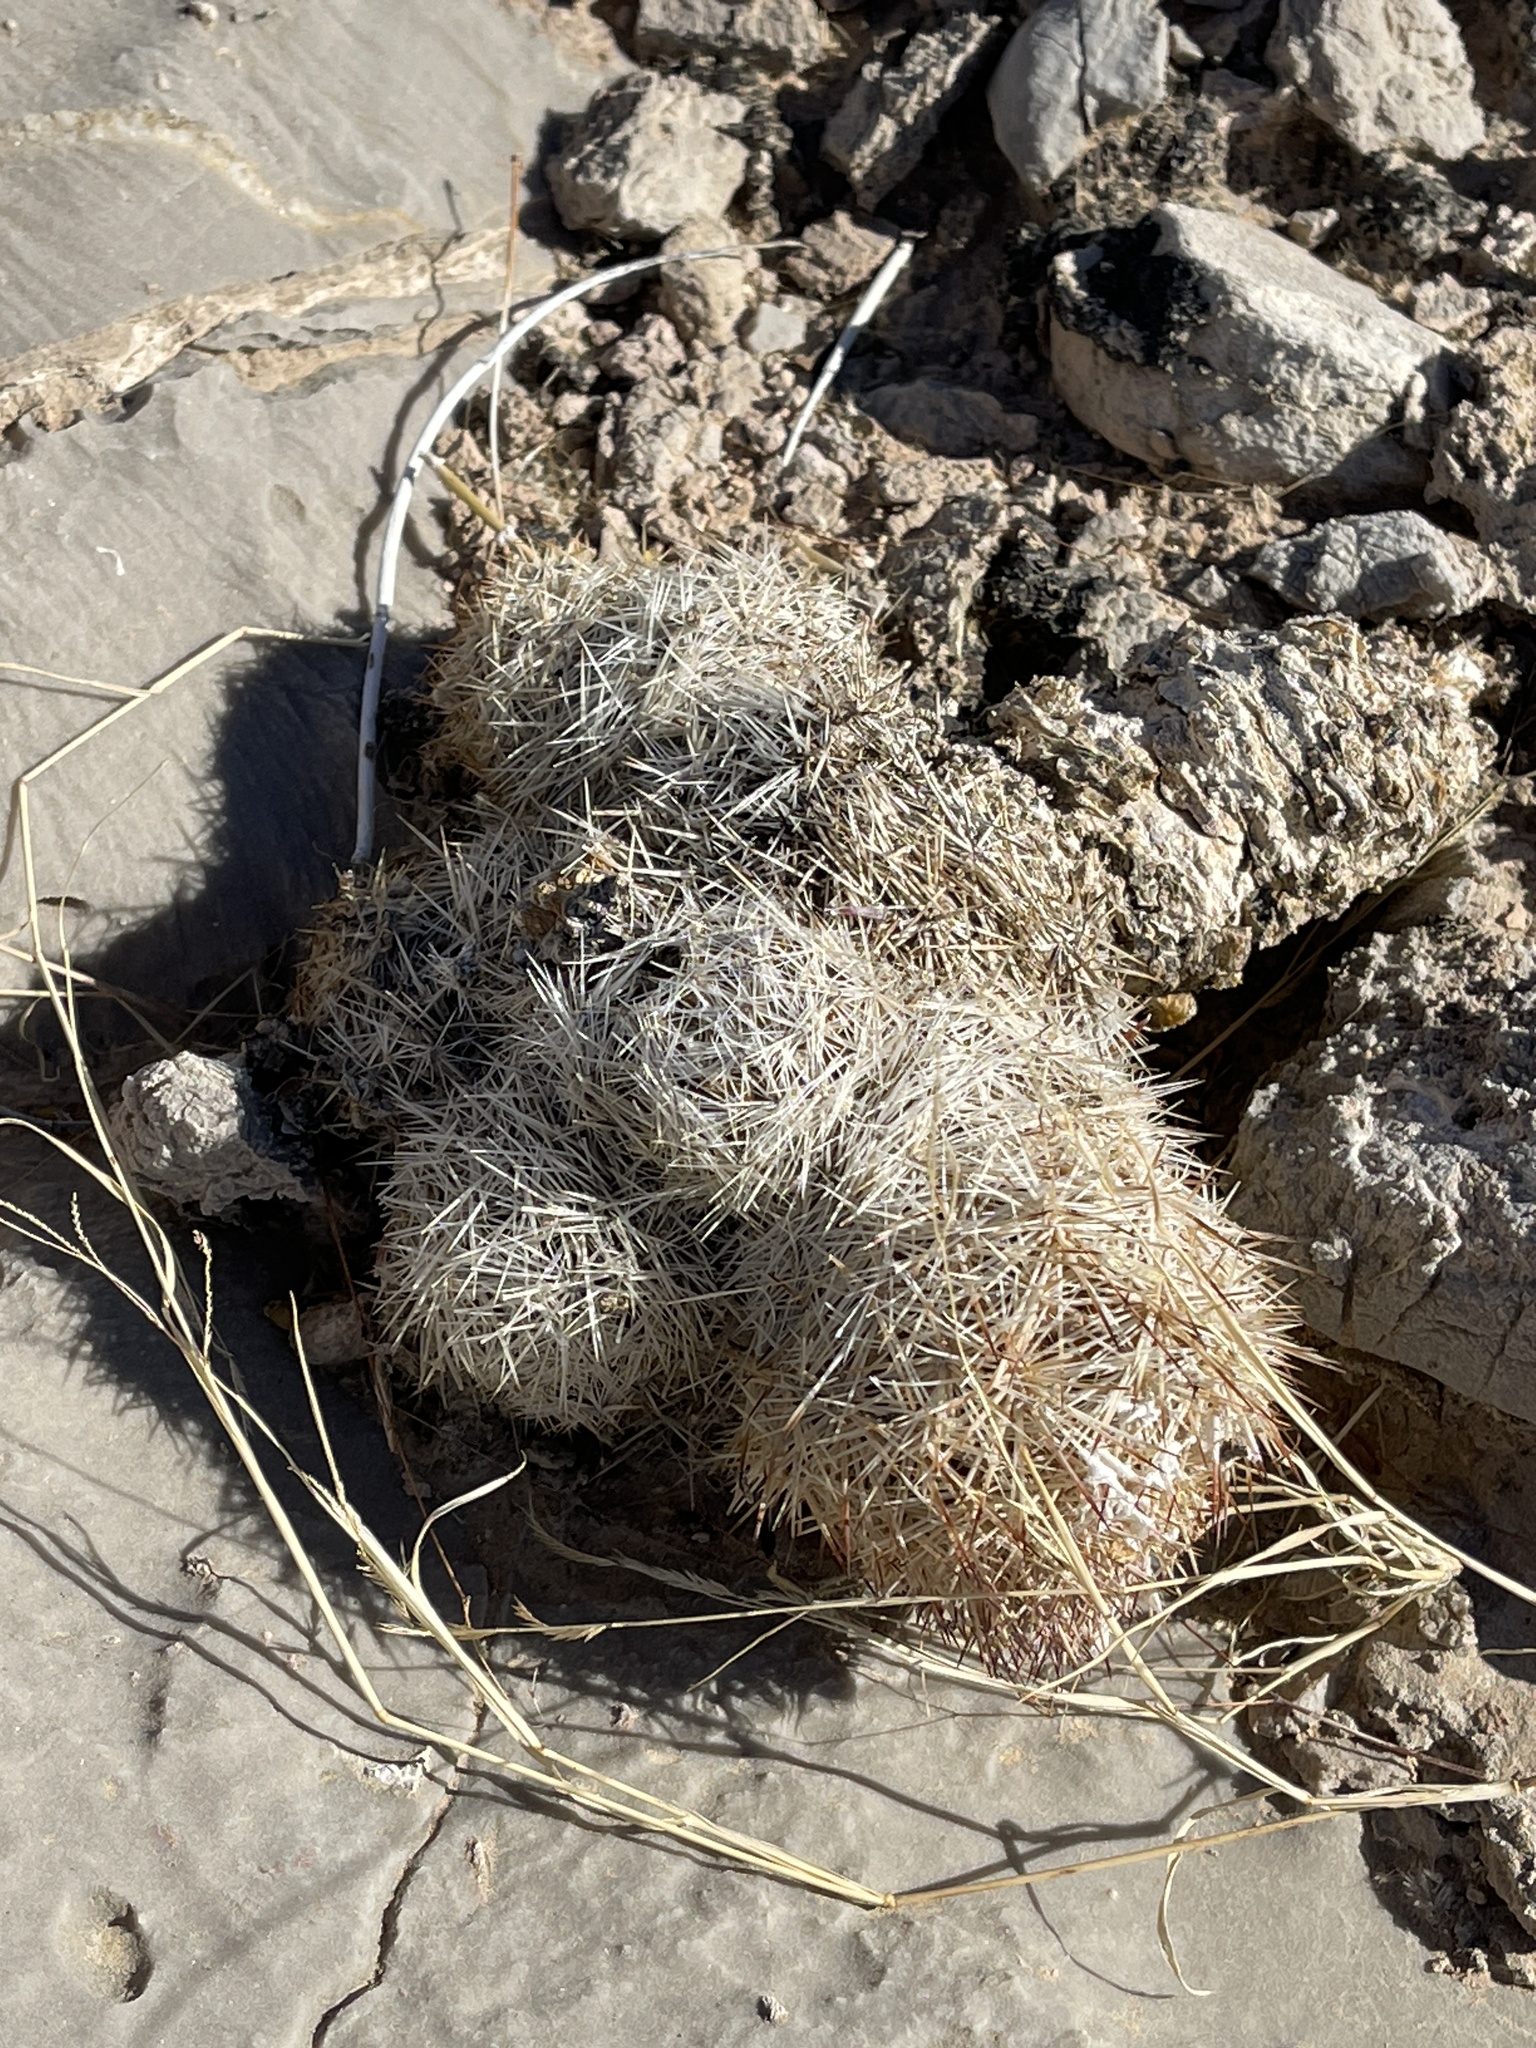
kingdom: Plantae
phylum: Tracheophyta
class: Magnoliopsida
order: Caryophyllales
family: Cactaceae
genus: Pelecyphora
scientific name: Pelecyphora dasyacantha
